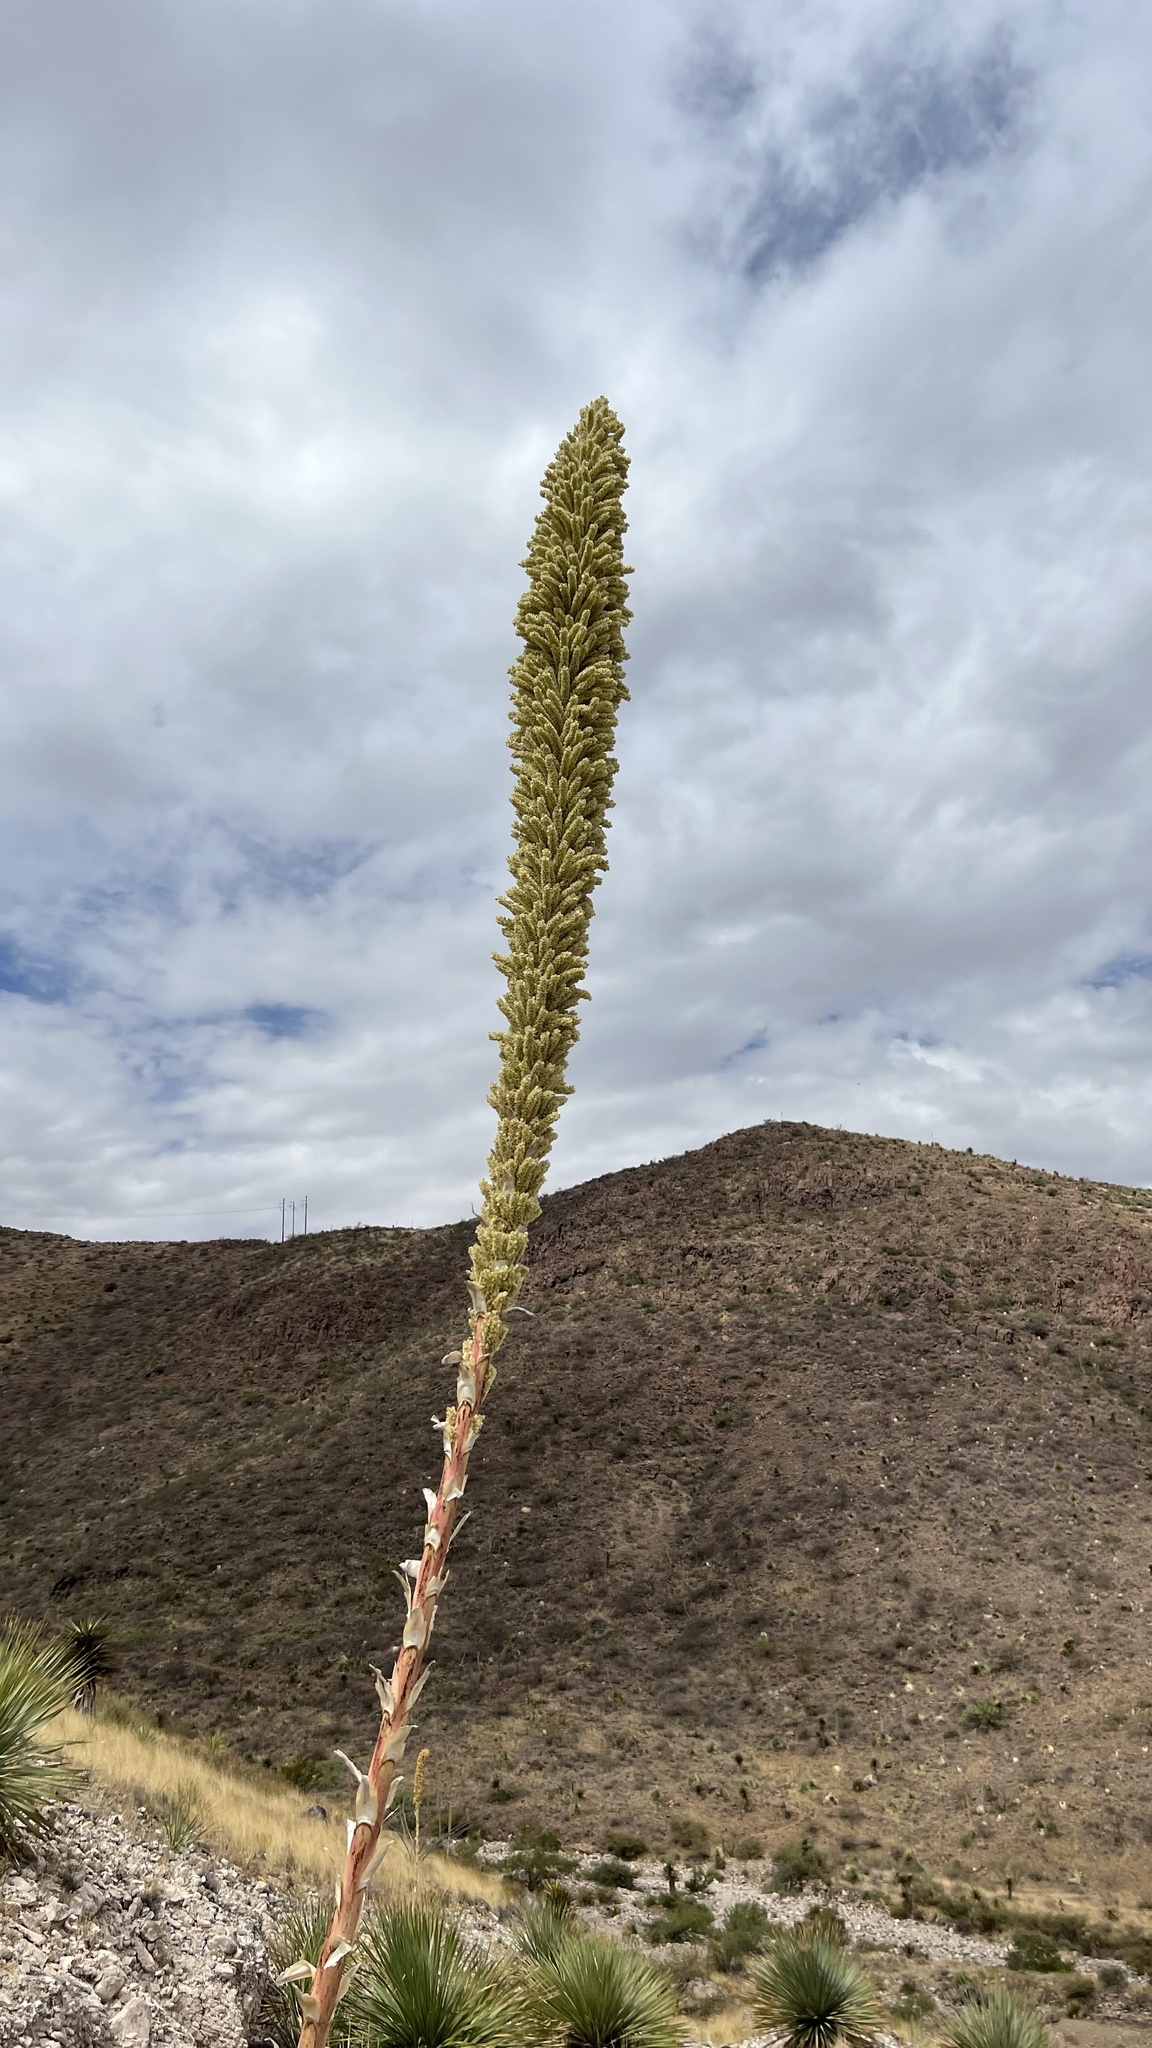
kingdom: Plantae
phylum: Tracheophyta
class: Liliopsida
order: Asparagales
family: Asparagaceae
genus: Dasylirion
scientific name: Dasylirion wheeleri
